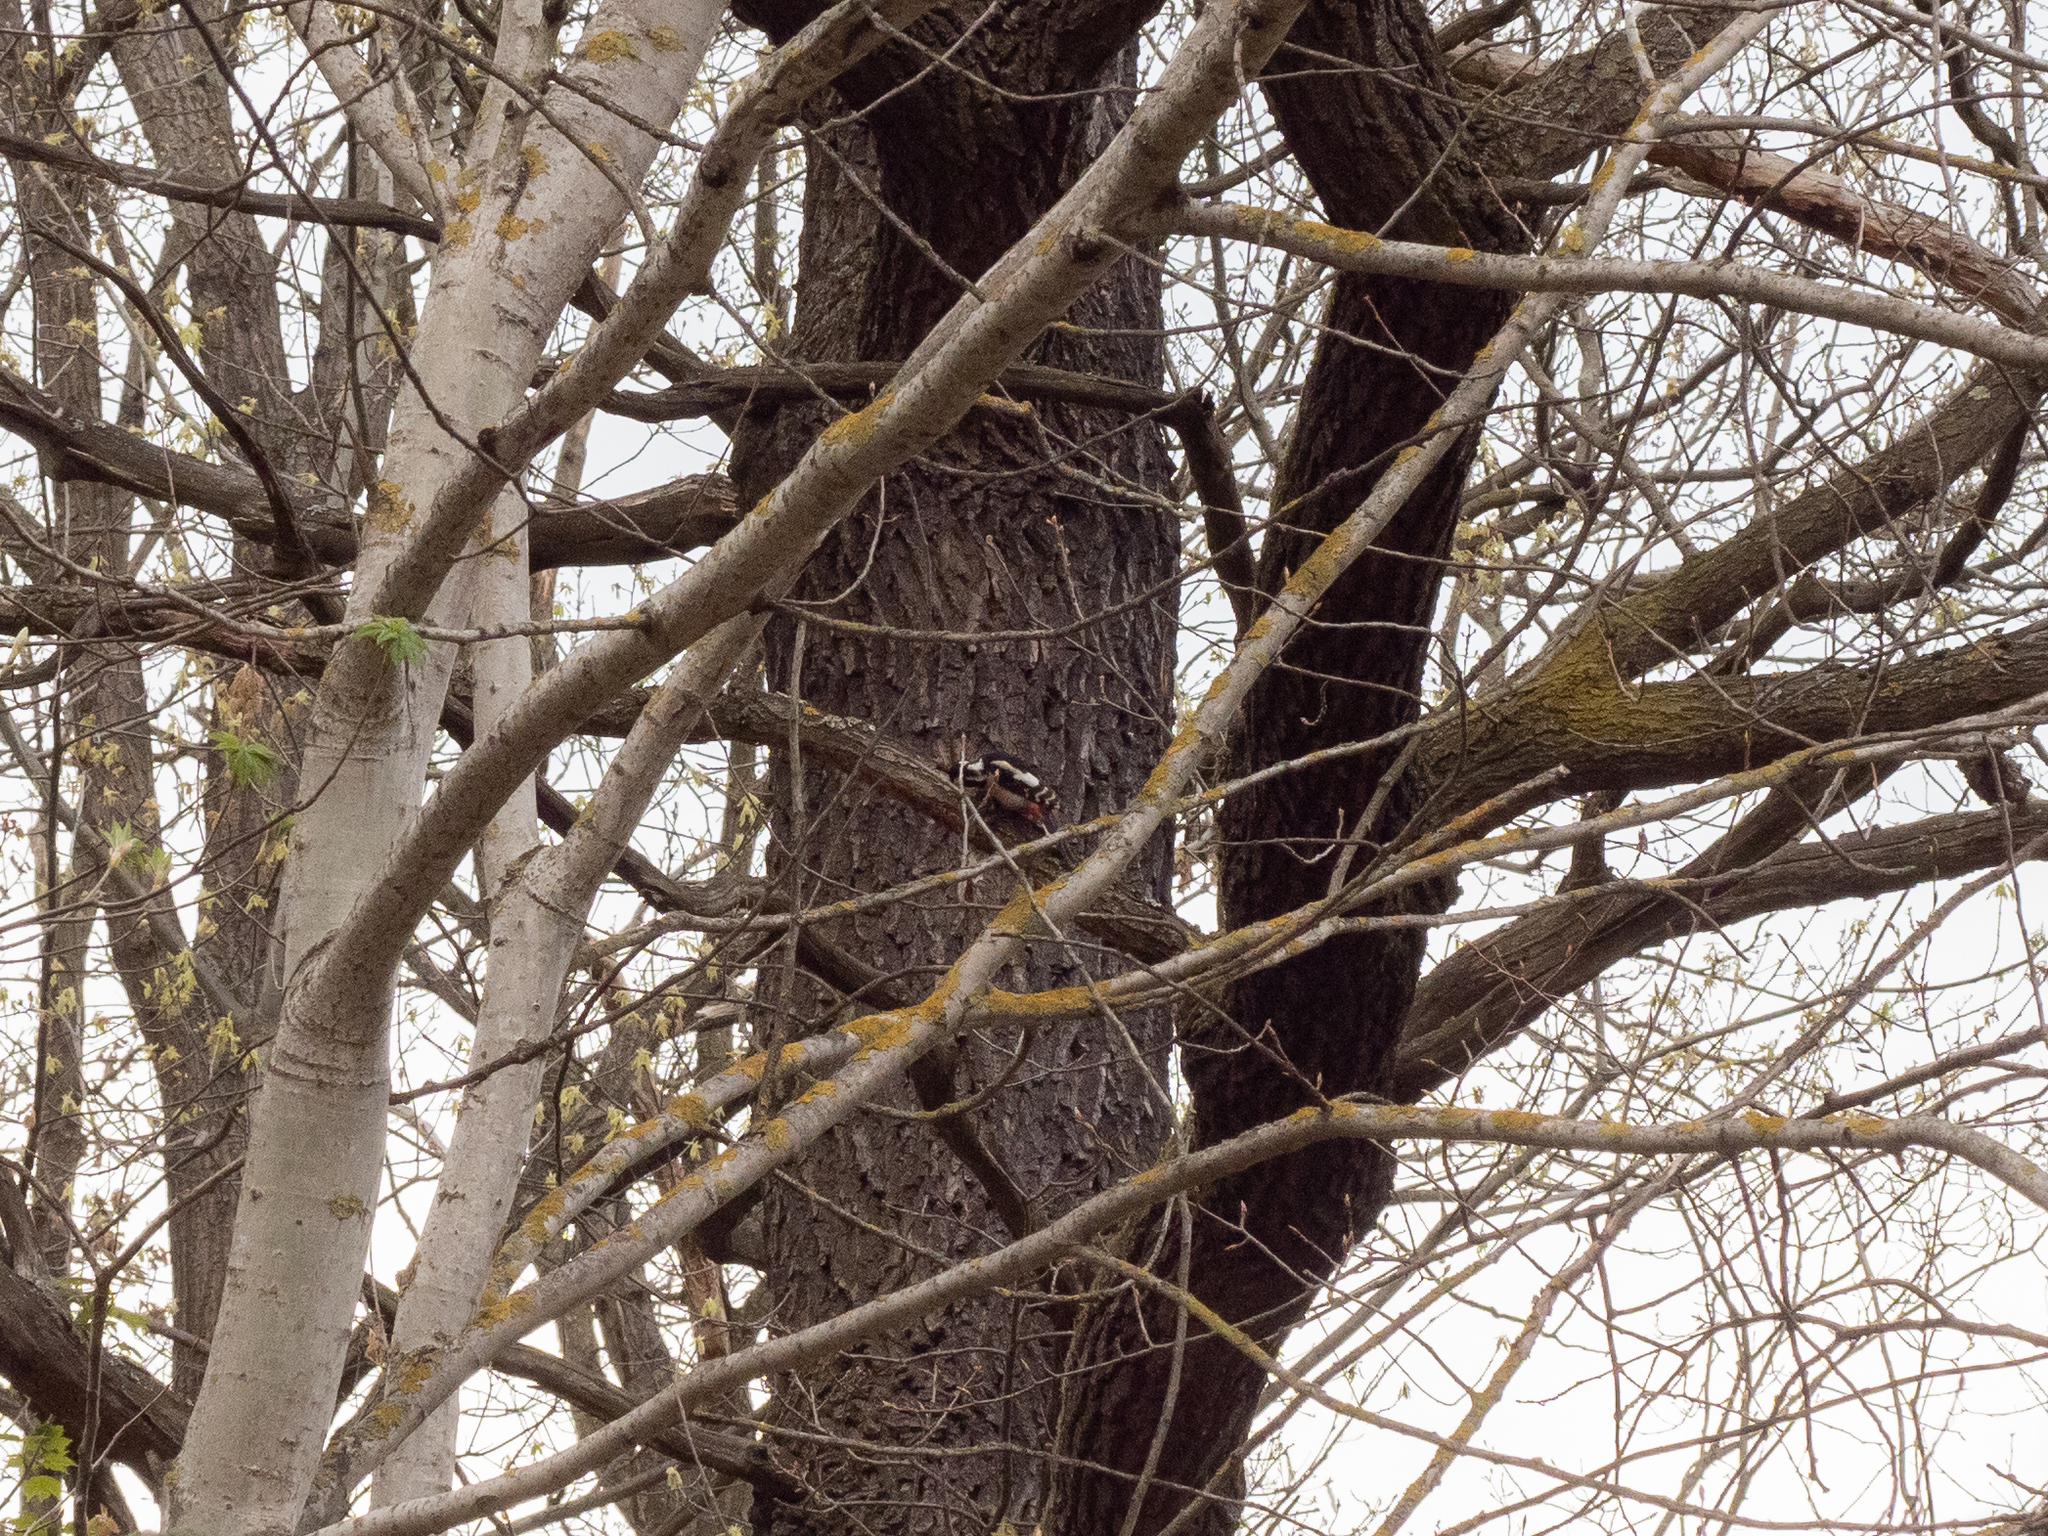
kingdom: Animalia
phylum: Chordata
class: Aves
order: Piciformes
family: Picidae
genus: Dendrocopos
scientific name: Dendrocopos major
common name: Great spotted woodpecker
